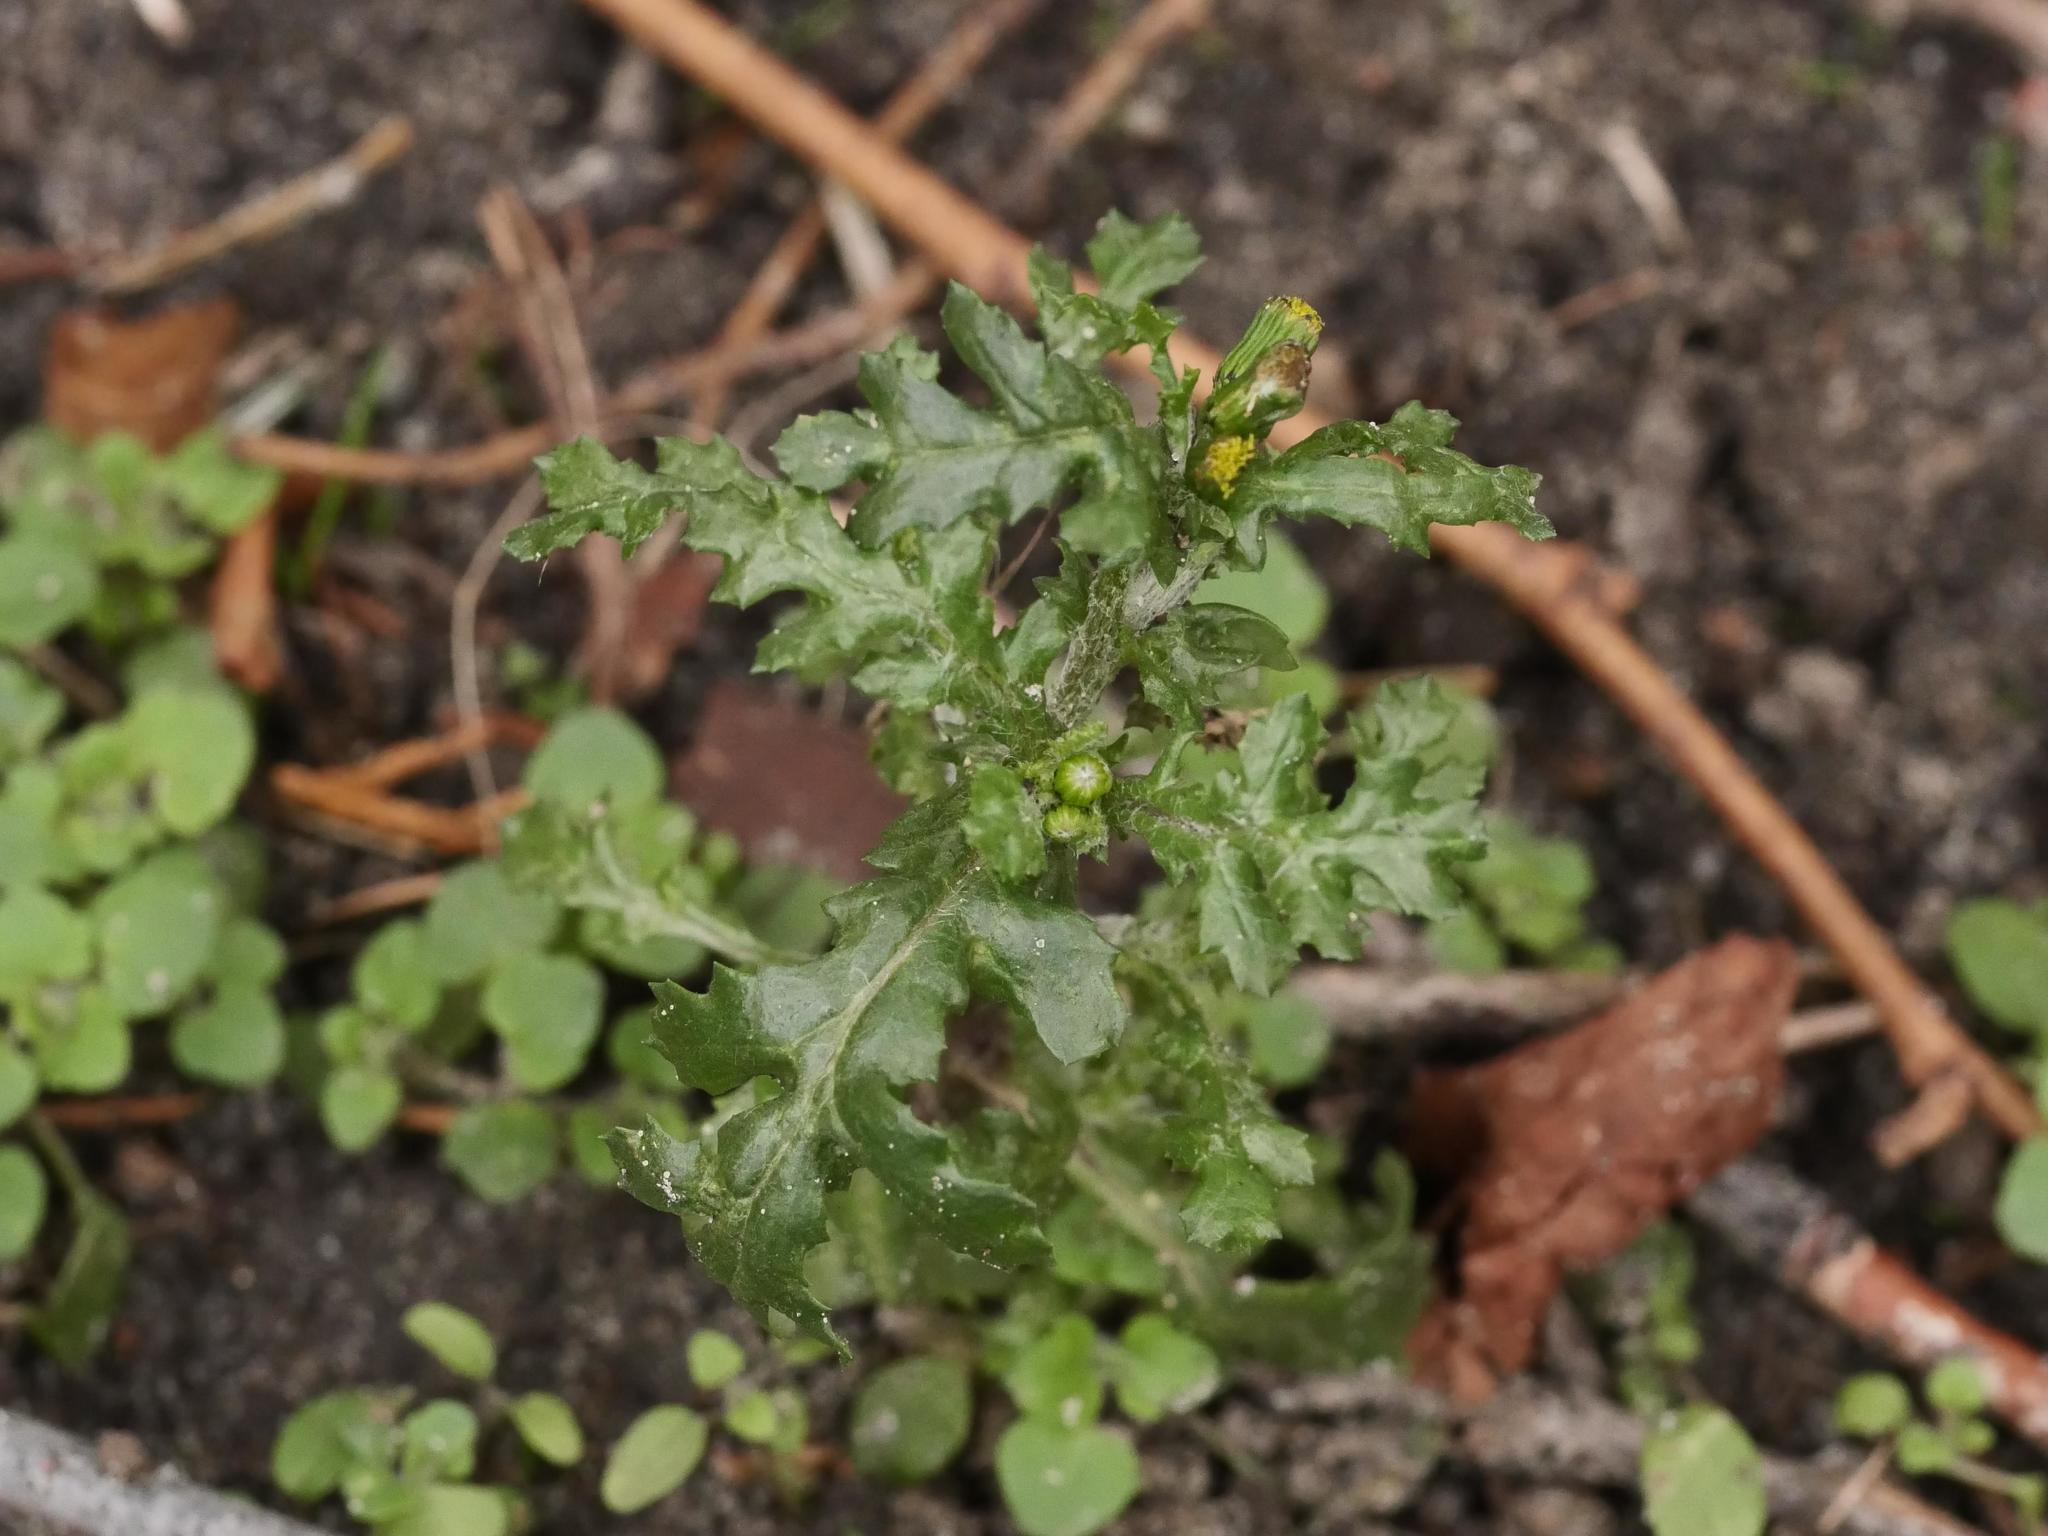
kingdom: Plantae
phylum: Tracheophyta
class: Magnoliopsida
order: Asterales
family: Asteraceae
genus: Senecio
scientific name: Senecio vulgaris
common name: Old-man-in-the-spring
